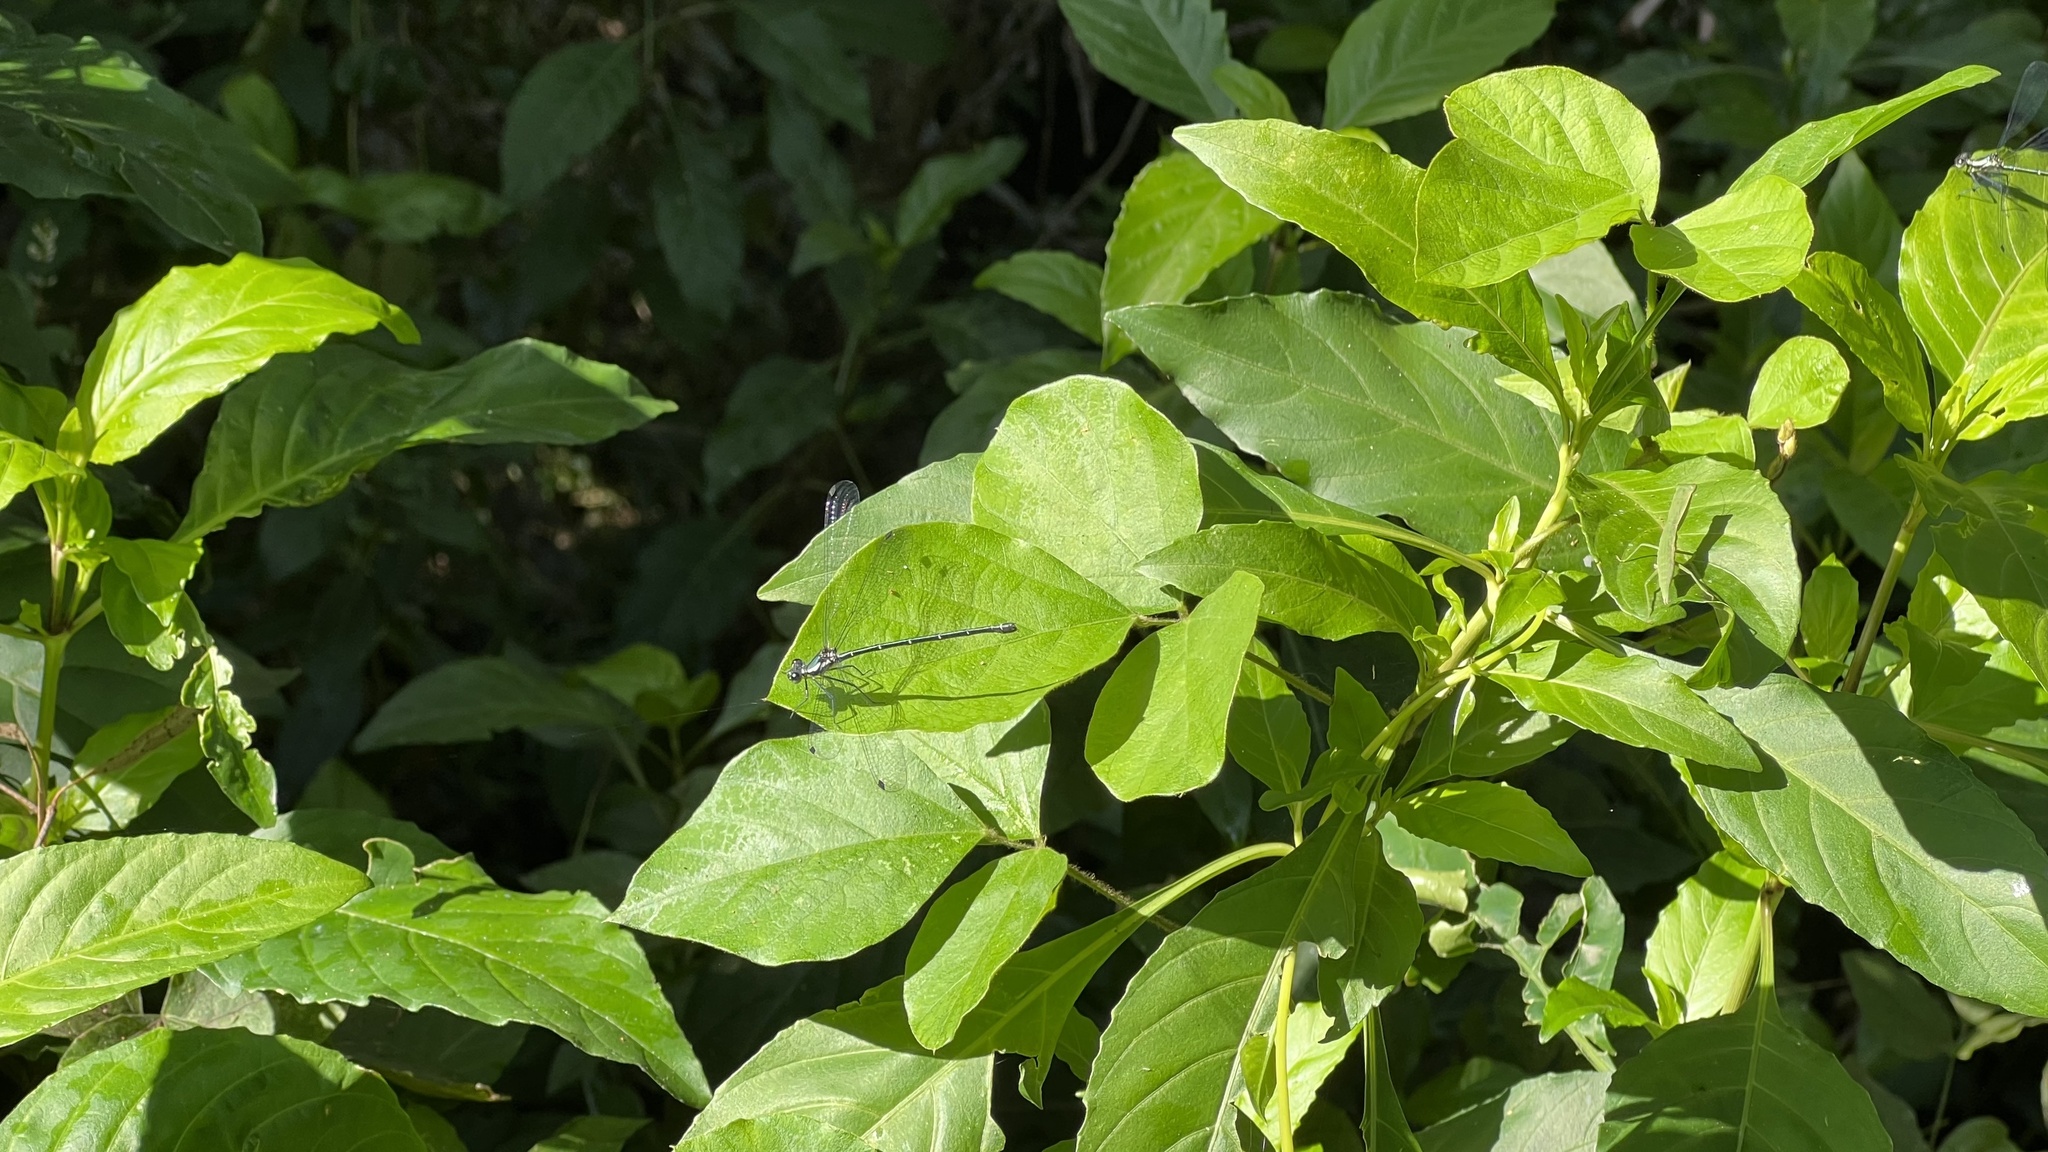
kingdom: Animalia
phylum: Arthropoda
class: Insecta
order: Odonata
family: Argiolestidae
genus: Austroargiolestes
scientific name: Austroargiolestes icteromelas
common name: Common flatwing
